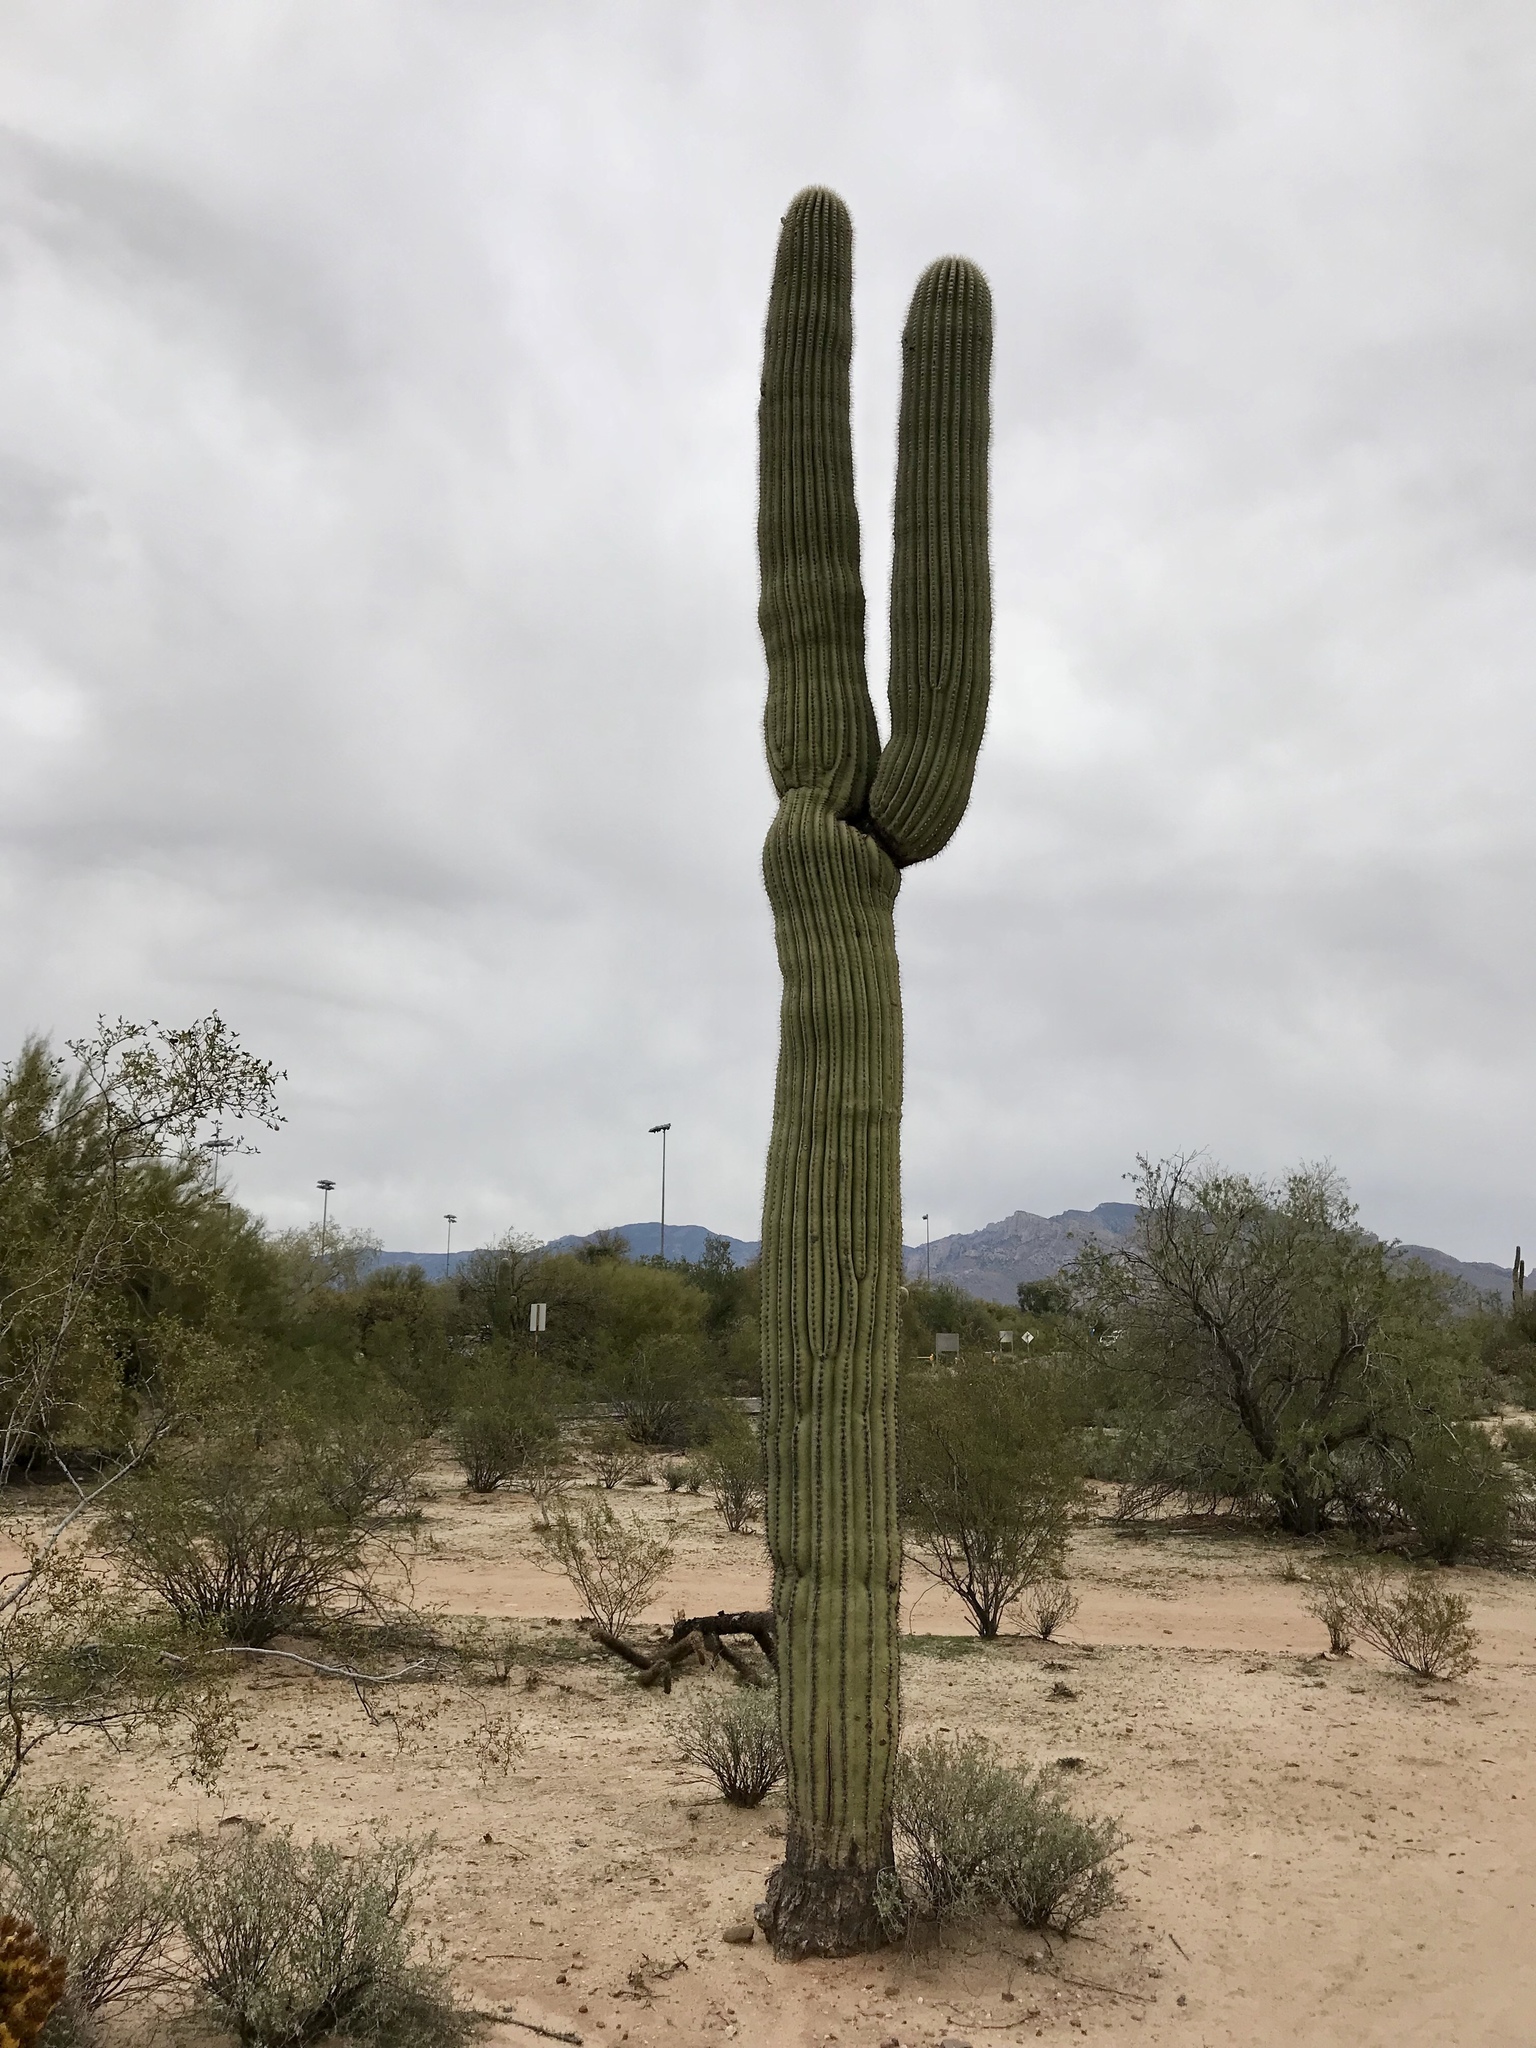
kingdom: Plantae
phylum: Tracheophyta
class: Magnoliopsida
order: Caryophyllales
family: Cactaceae
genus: Carnegiea
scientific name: Carnegiea gigantea
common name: Saguaro
